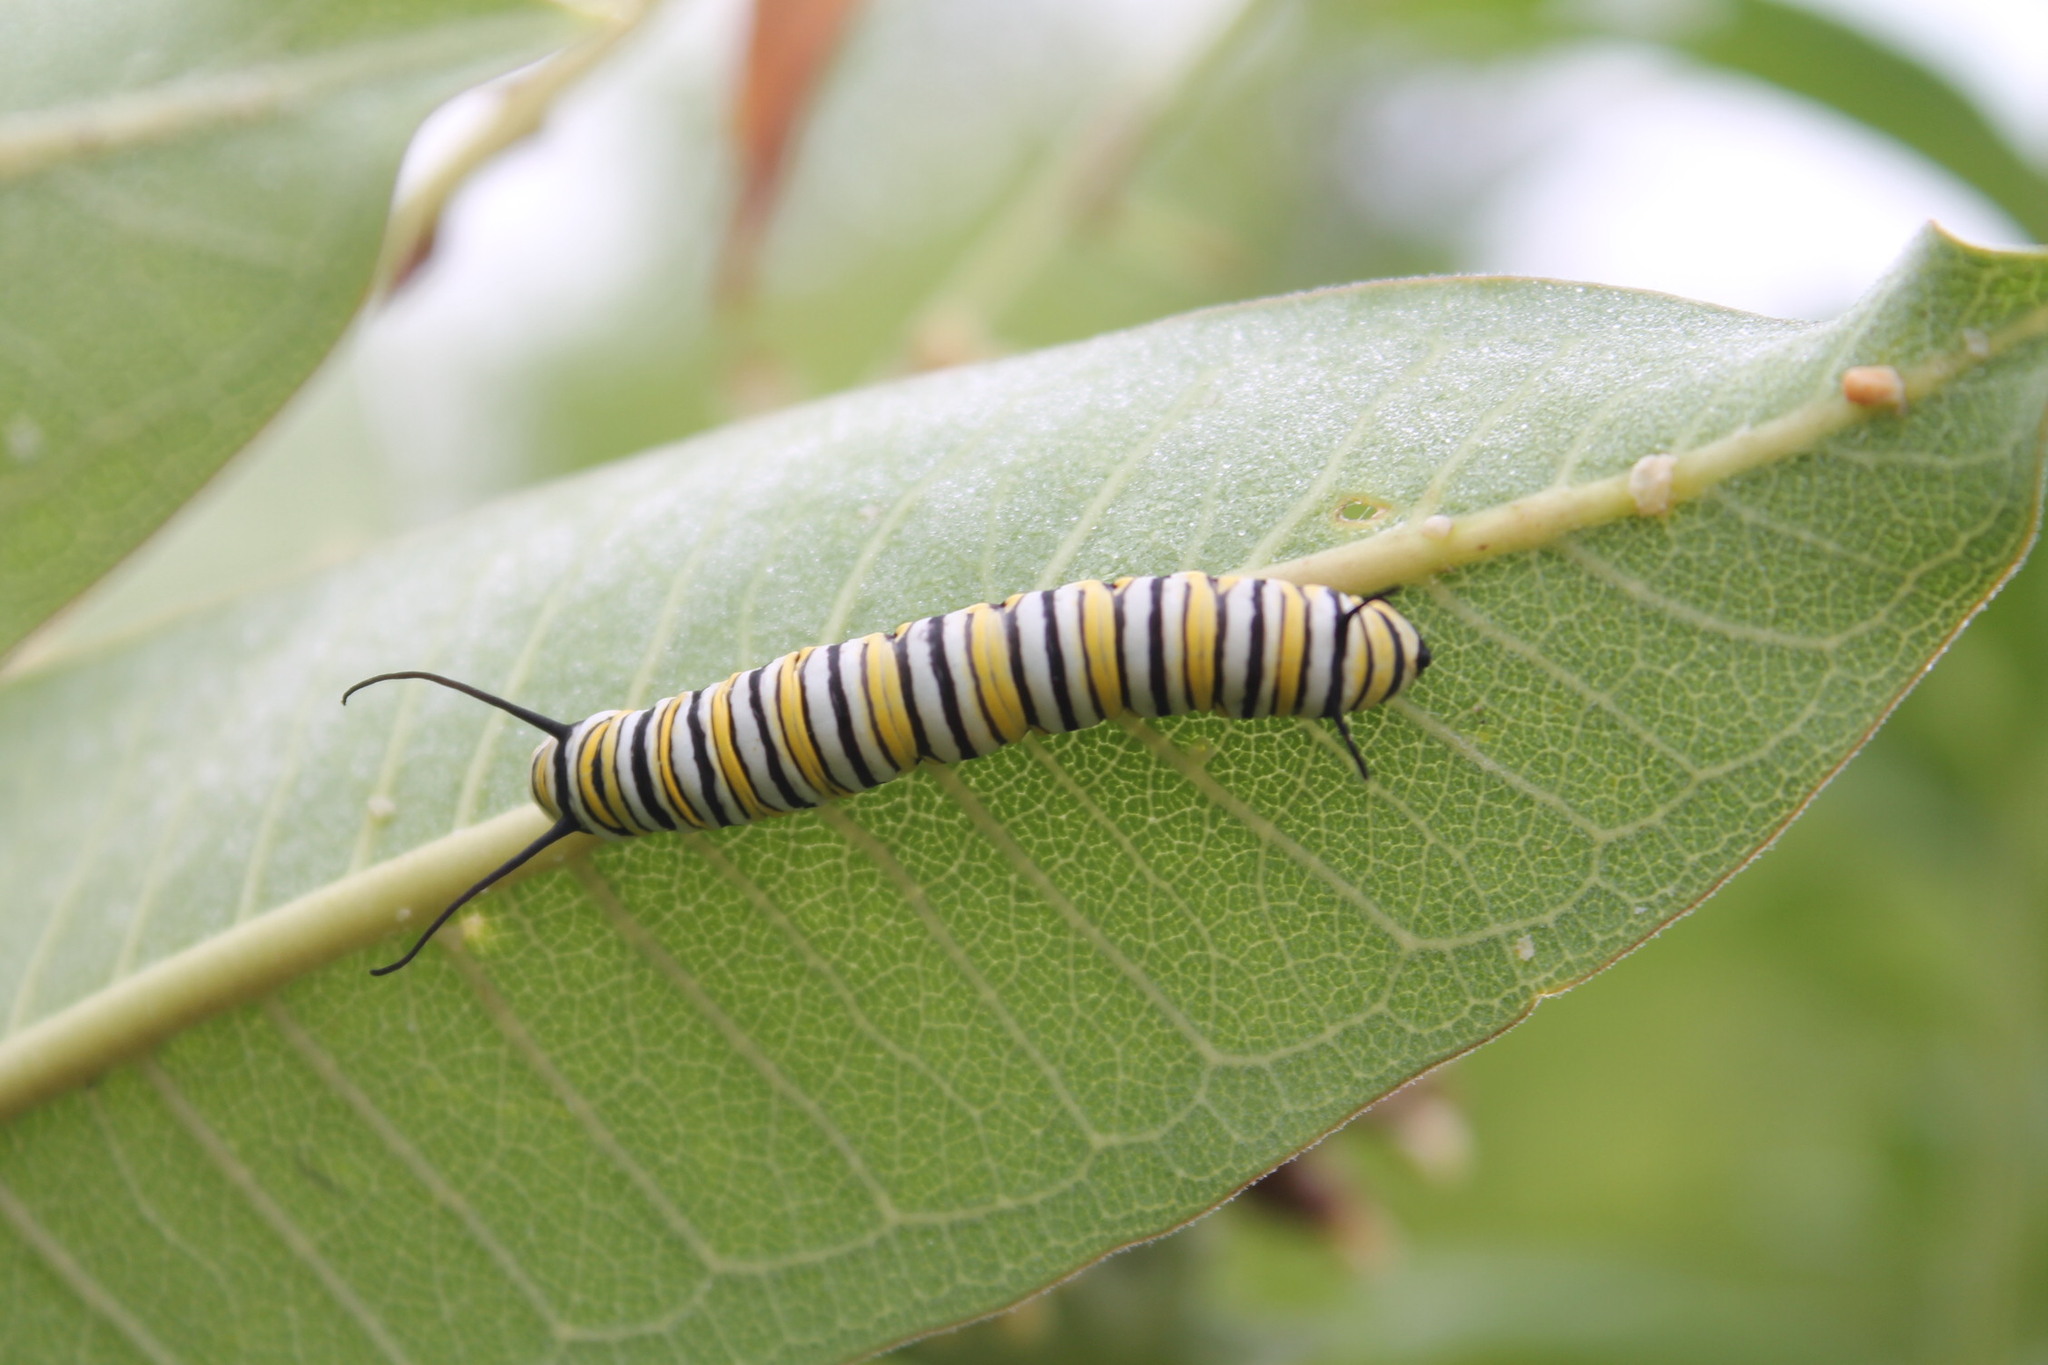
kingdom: Animalia
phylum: Arthropoda
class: Insecta
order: Lepidoptera
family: Nymphalidae
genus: Danaus
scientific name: Danaus plexippus
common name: Monarch
